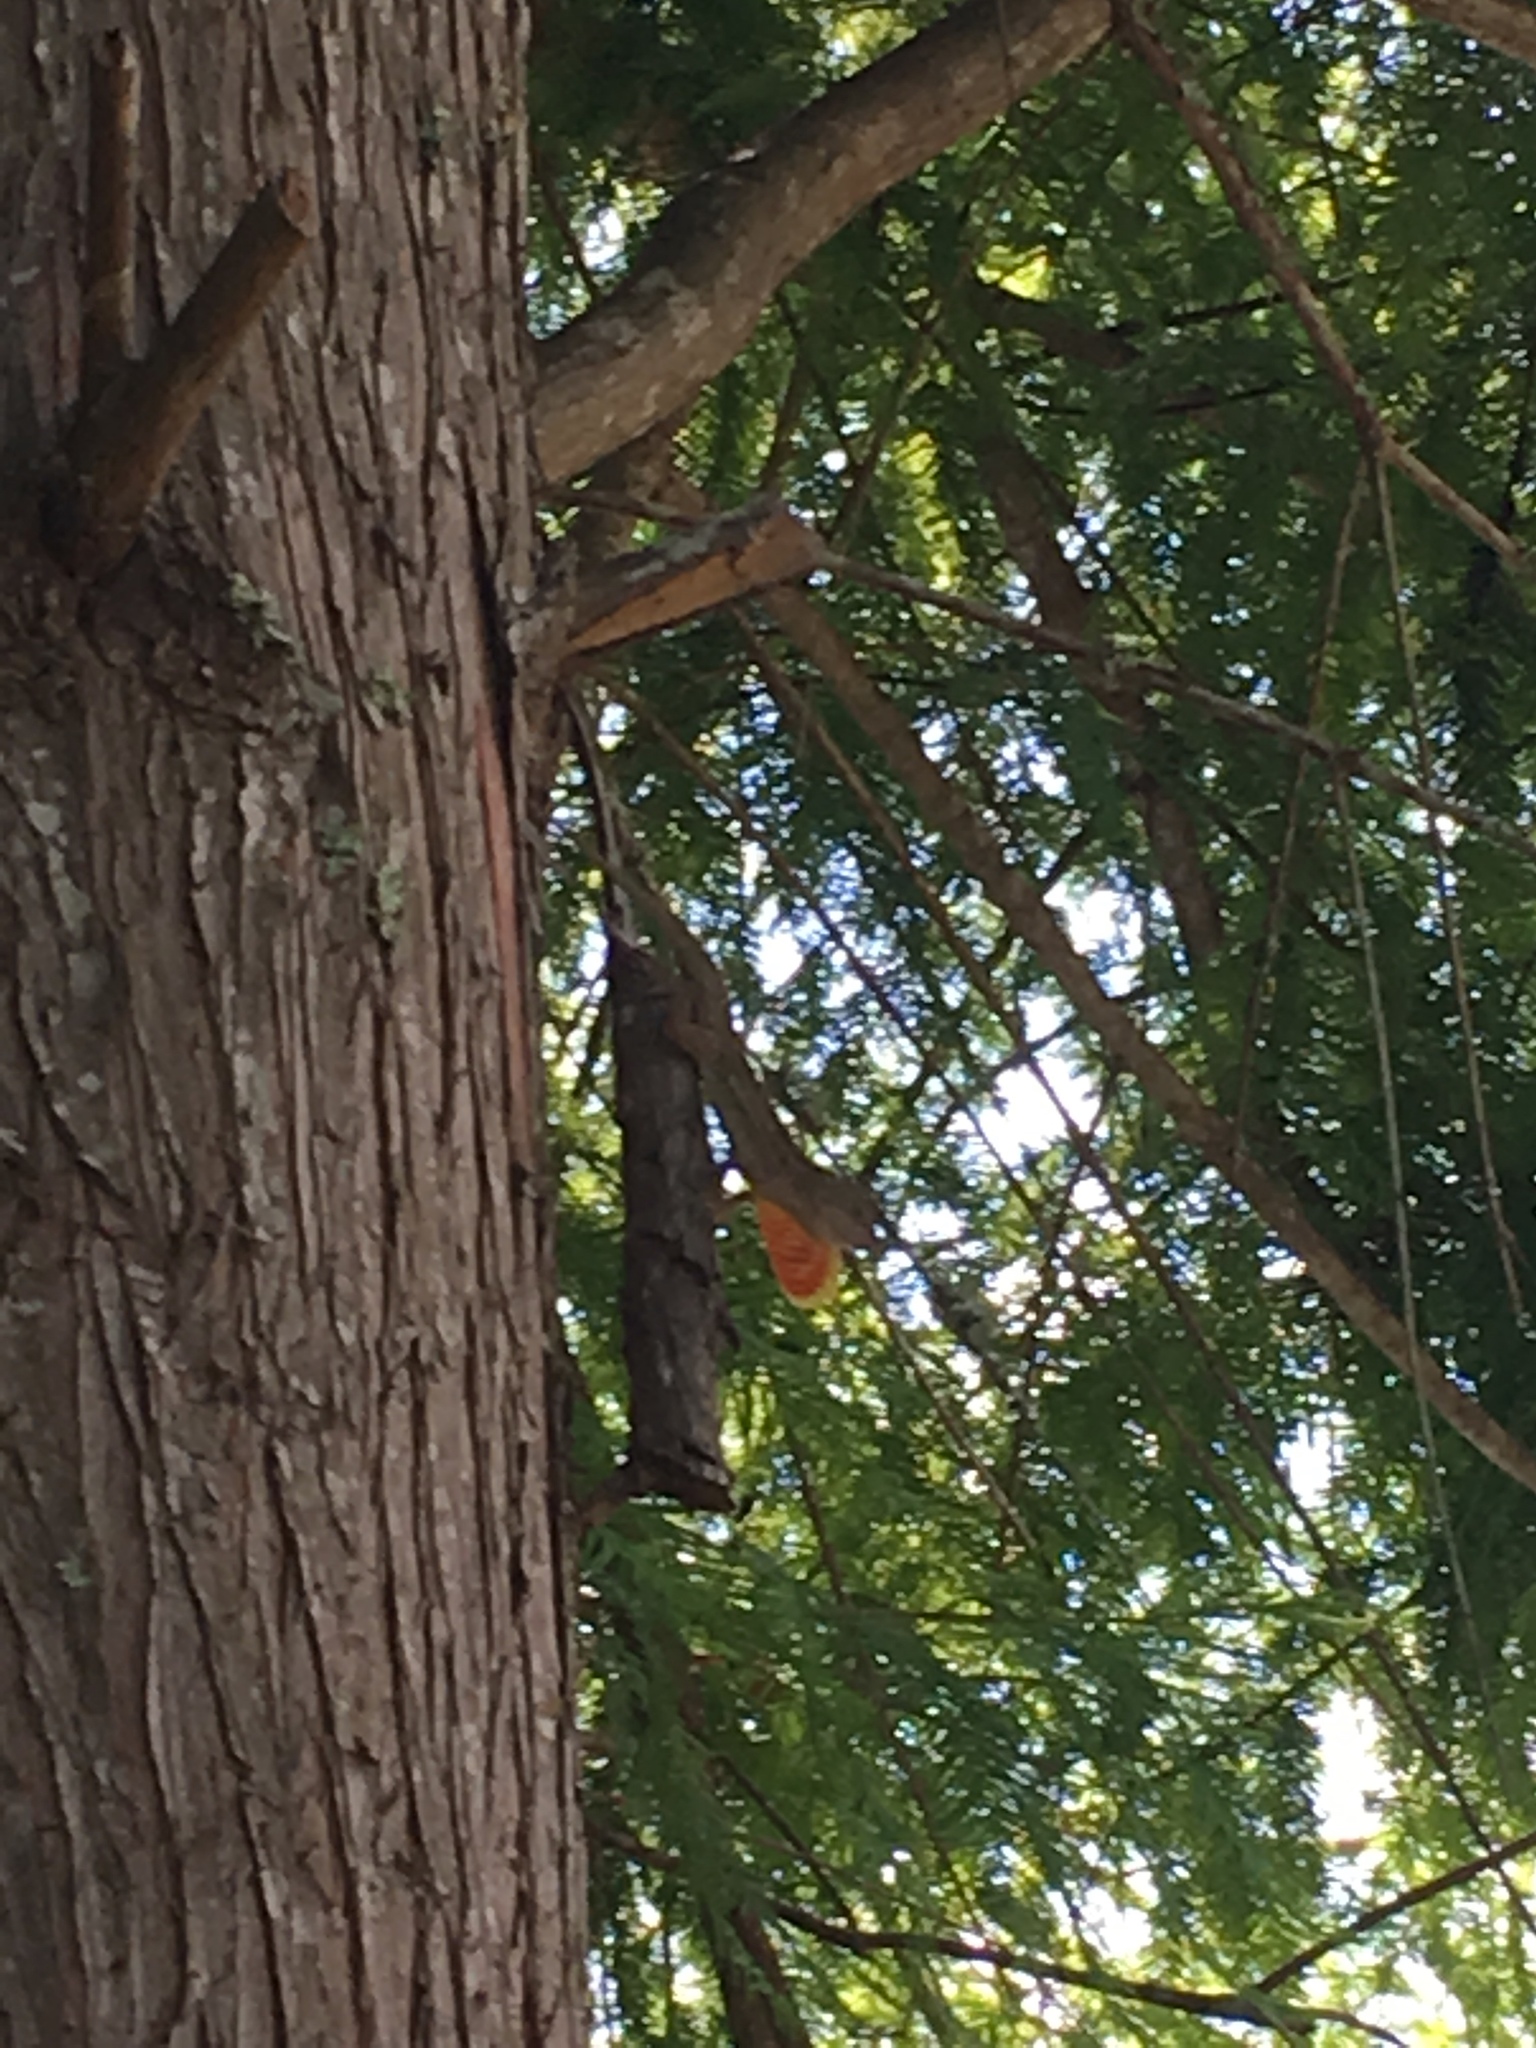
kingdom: Animalia
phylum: Chordata
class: Squamata
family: Dactyloidae
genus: Anolis
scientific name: Anolis sagrei
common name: Brown anole
